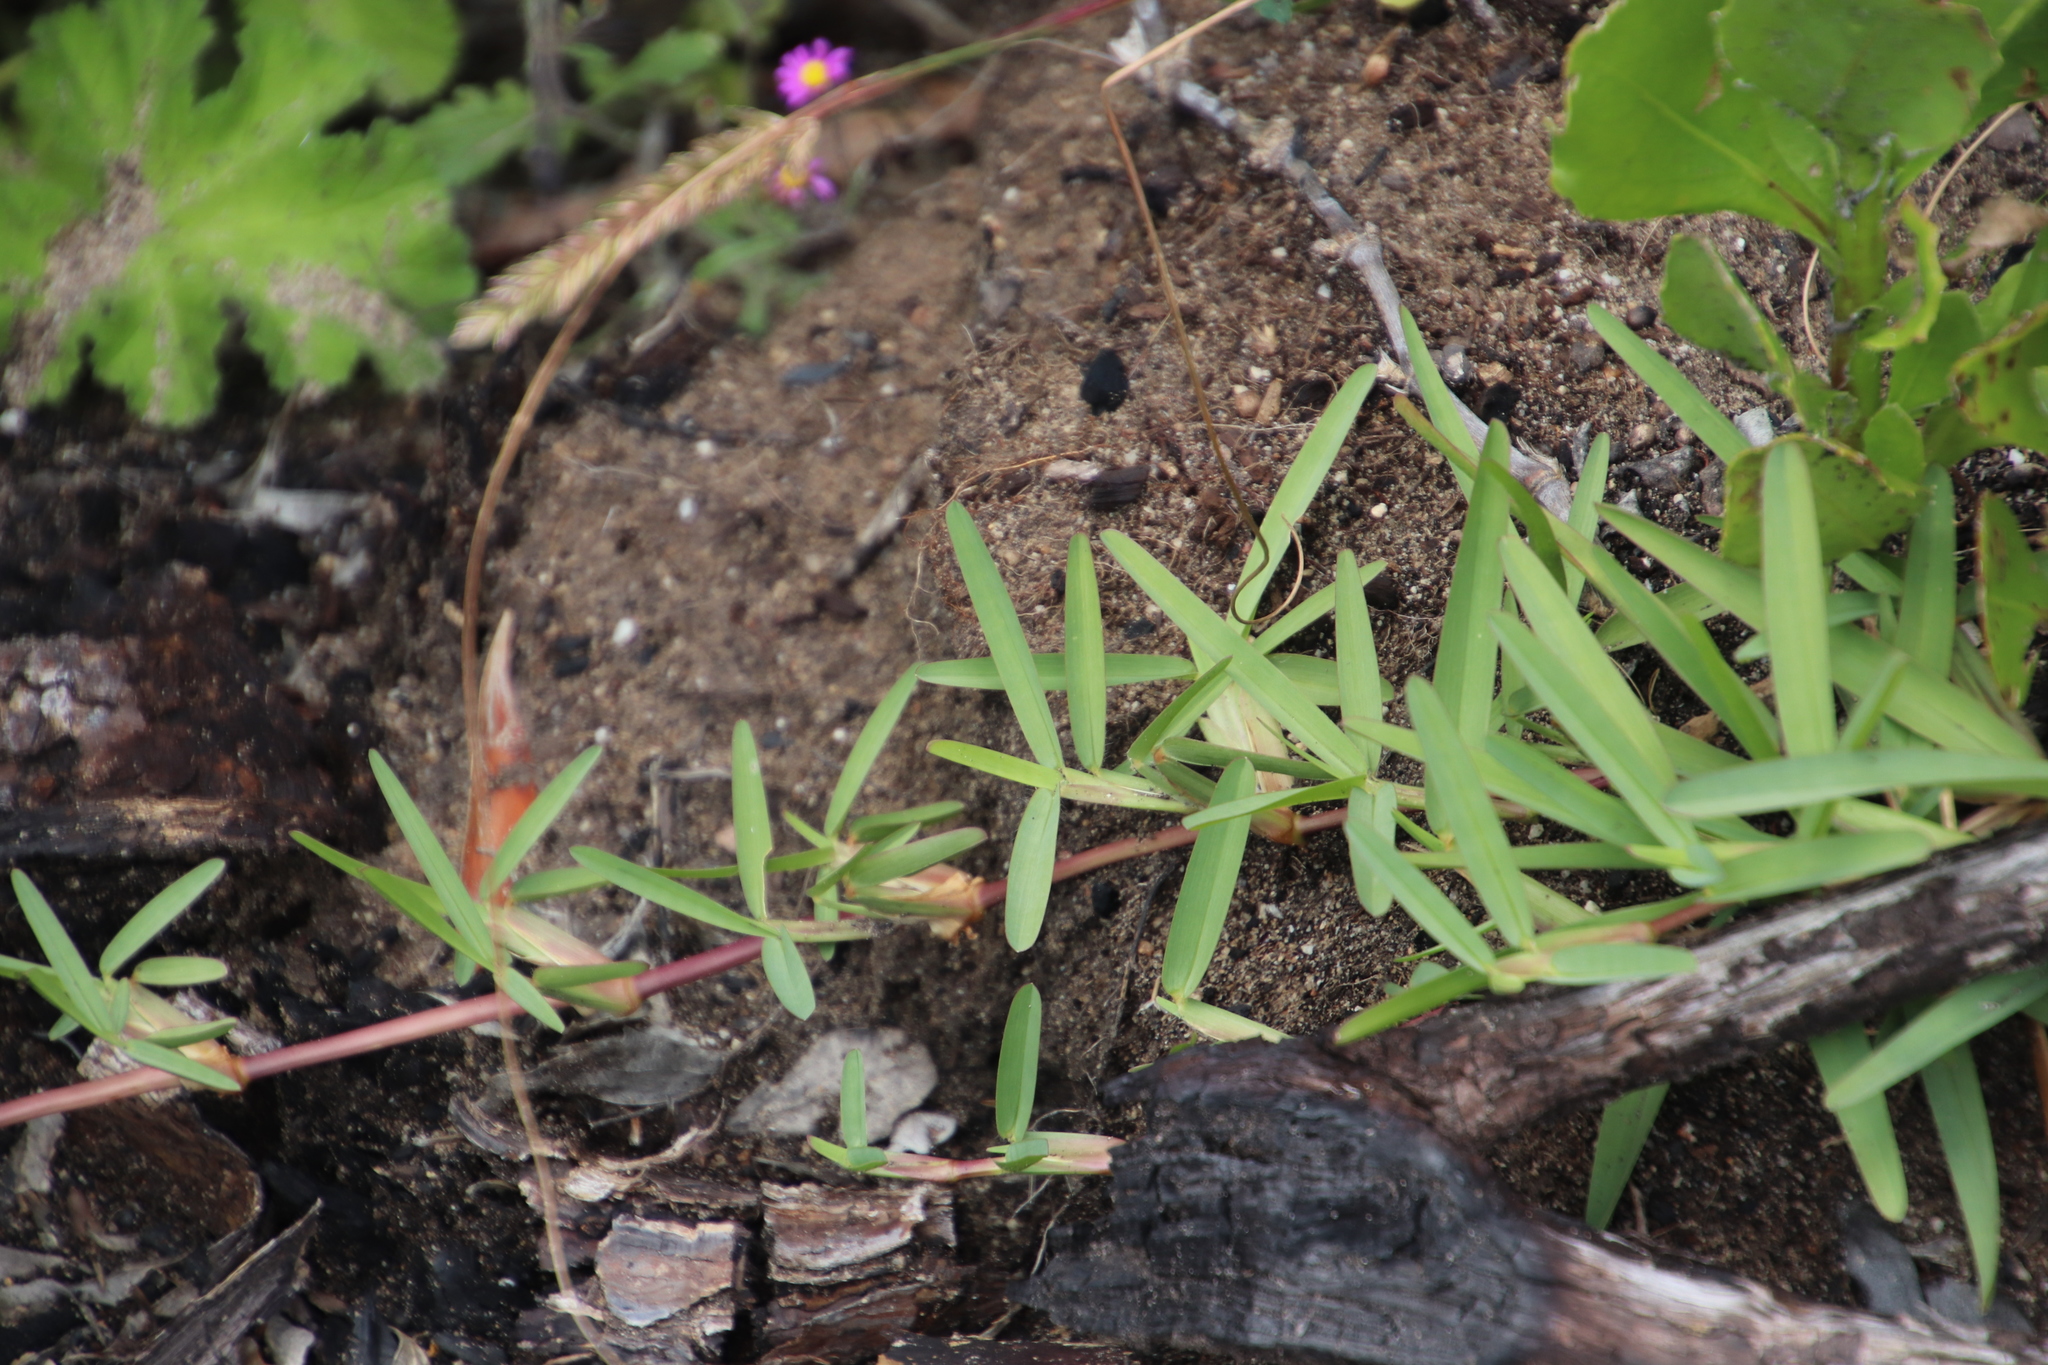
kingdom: Plantae
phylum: Tracheophyta
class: Liliopsida
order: Poales
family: Poaceae
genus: Stenotaphrum
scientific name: Stenotaphrum secundatum
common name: St. augustine grass
